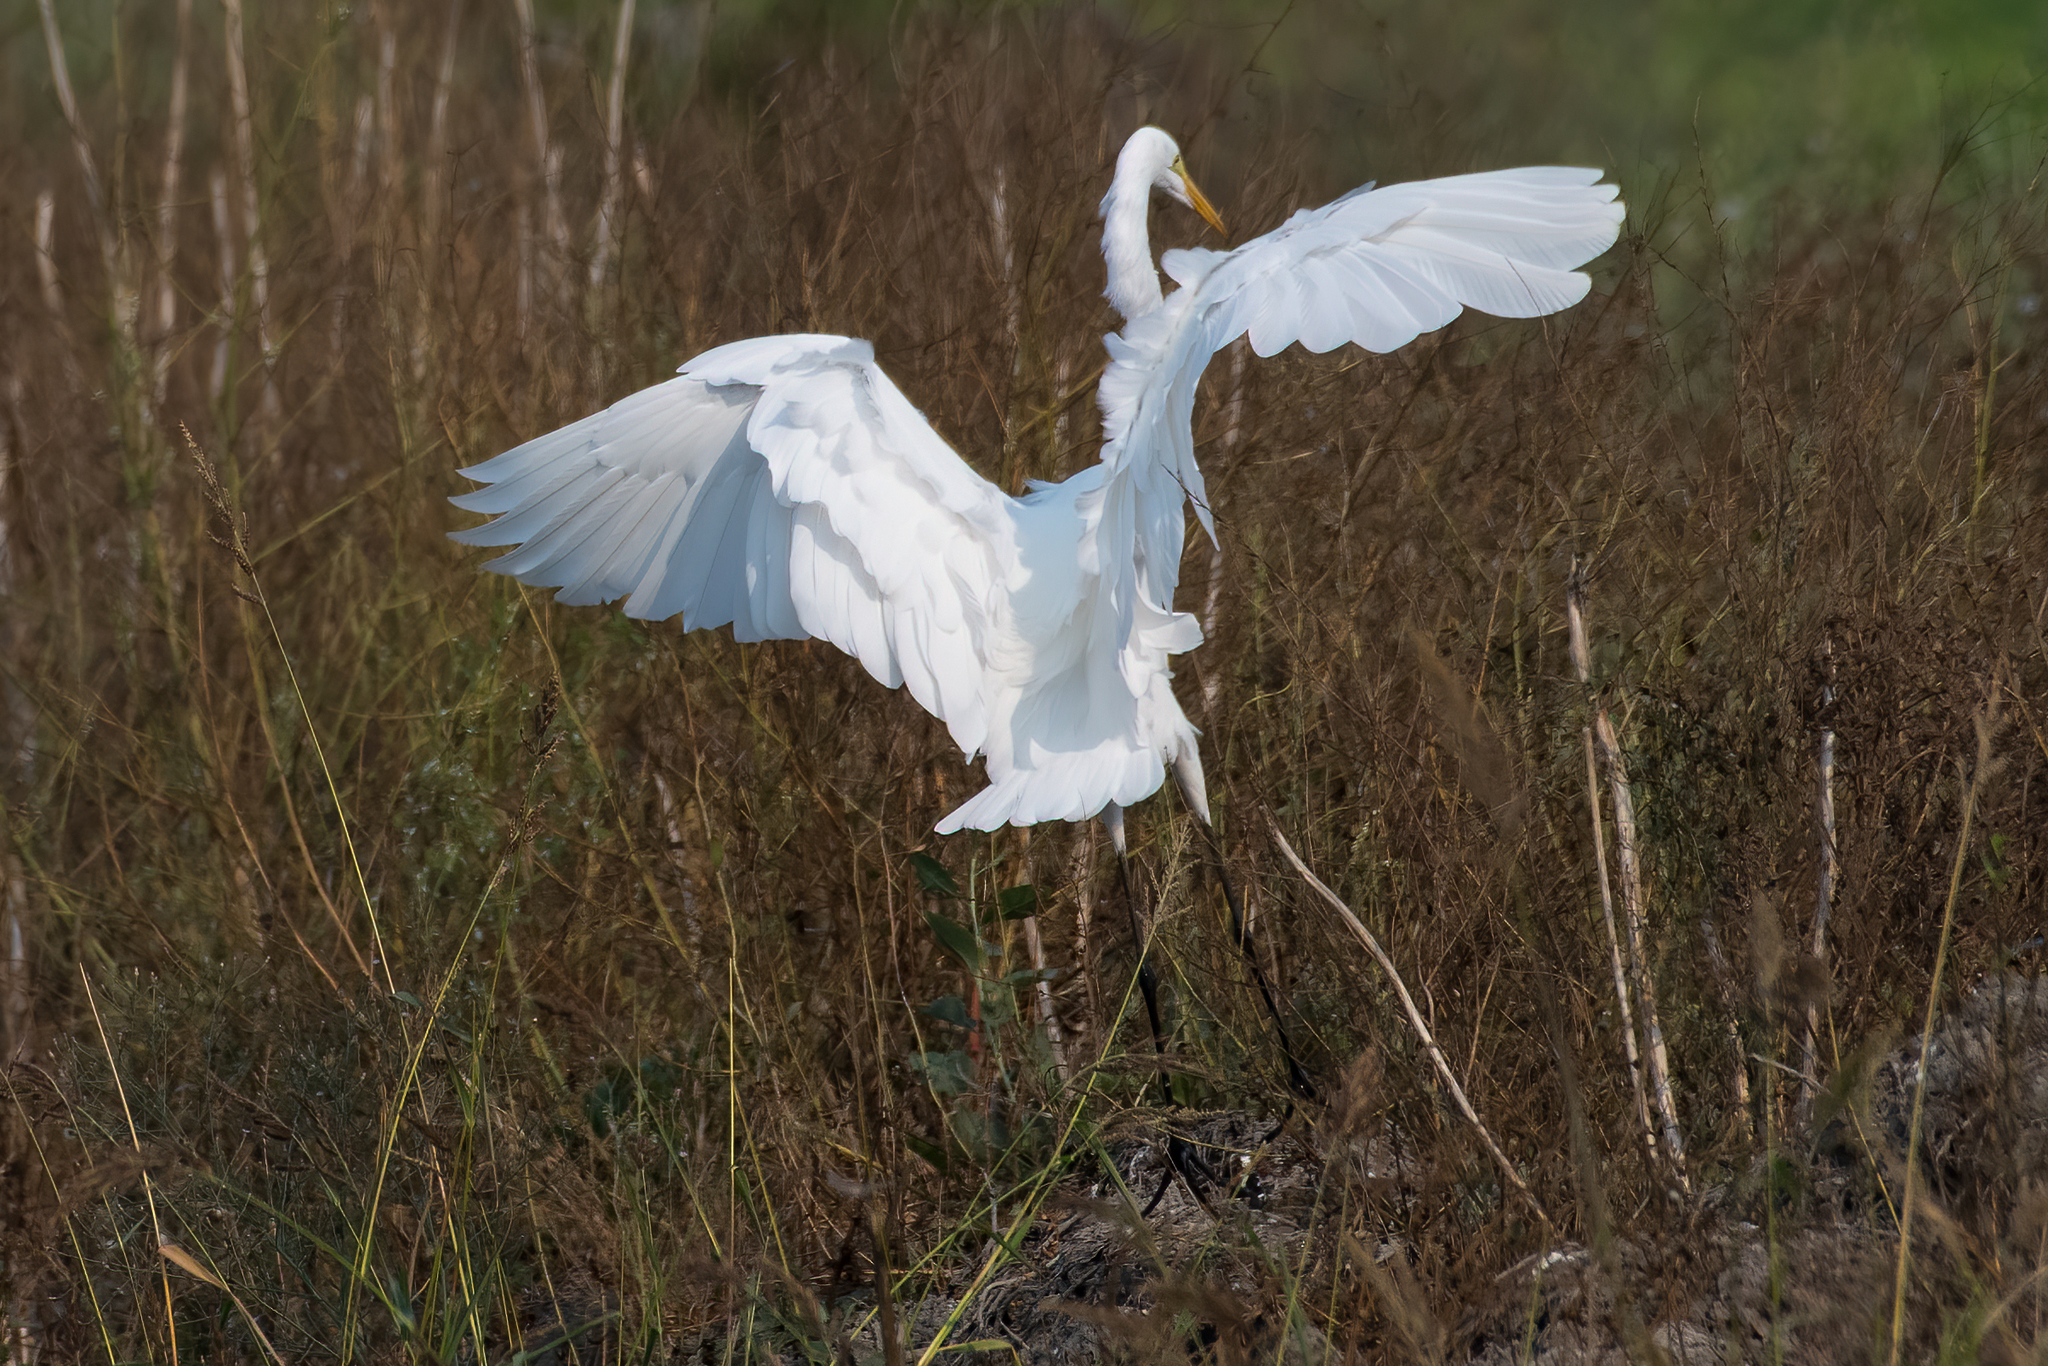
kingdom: Animalia
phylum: Chordata
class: Aves
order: Pelecaniformes
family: Ardeidae
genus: Ardea
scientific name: Ardea alba
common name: Great egret
